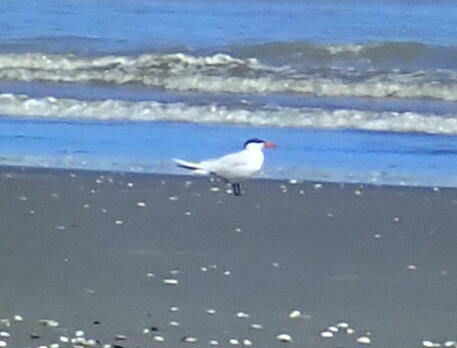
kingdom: Animalia
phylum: Chordata
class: Aves
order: Charadriiformes
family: Laridae
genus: Hydroprogne
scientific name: Hydroprogne caspia
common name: Caspian tern
